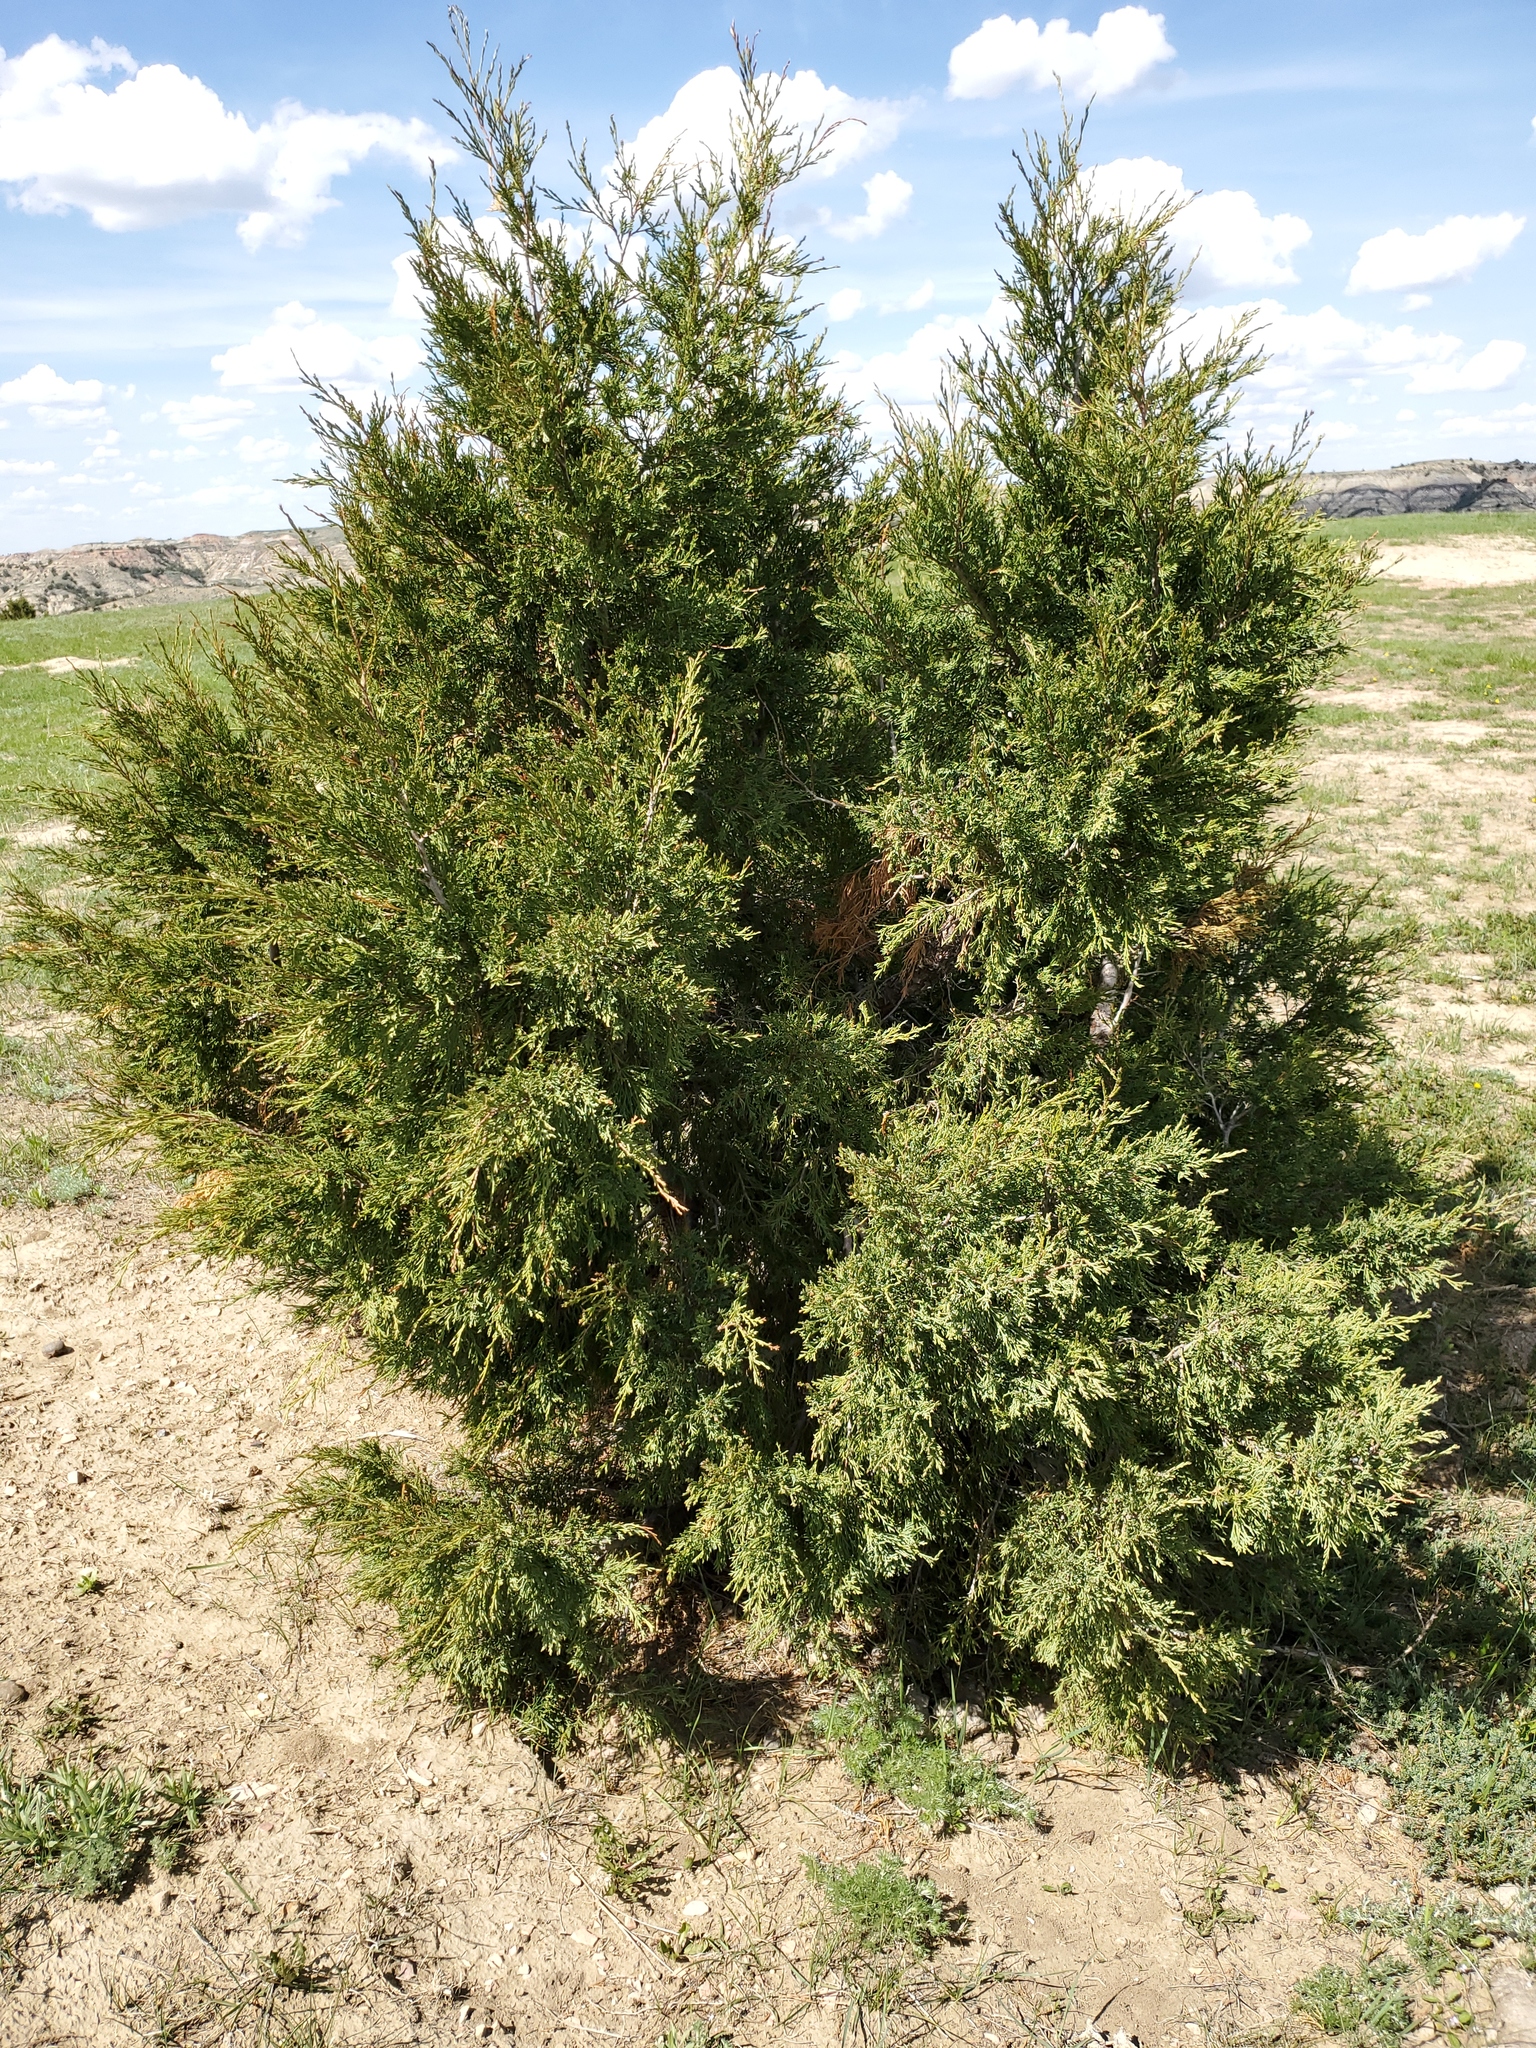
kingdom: Plantae
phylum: Tracheophyta
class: Pinopsida
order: Pinales
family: Cupressaceae
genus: Juniperus
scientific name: Juniperus scopulorum
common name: Rocky mountain juniper
